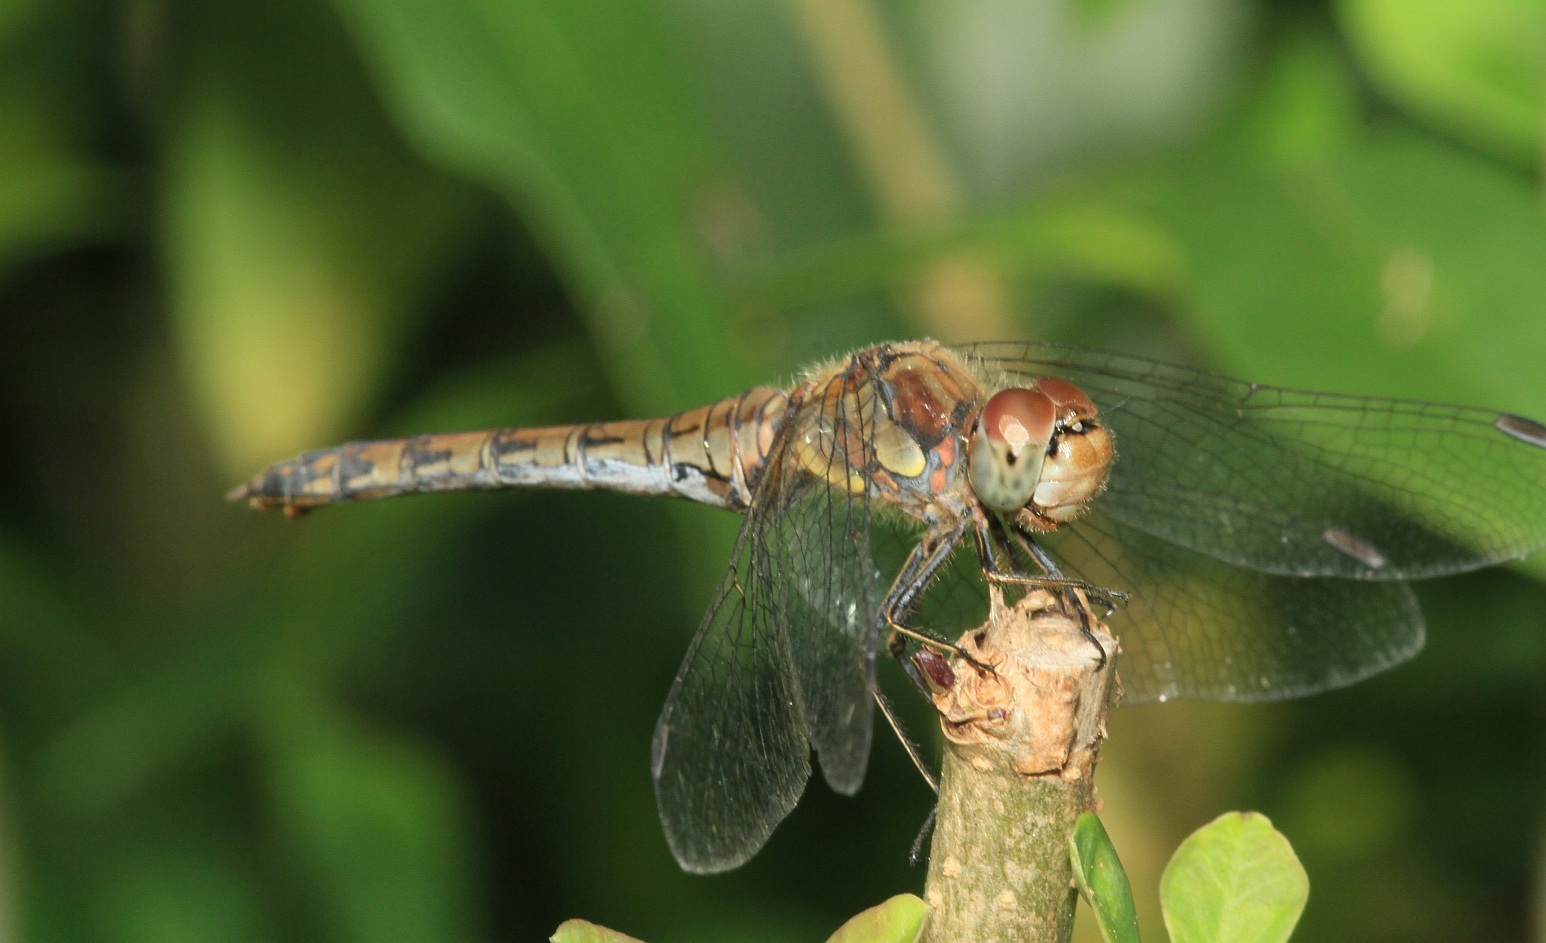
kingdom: Animalia
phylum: Arthropoda
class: Insecta
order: Odonata
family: Libellulidae
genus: Sympetrum
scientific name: Sympetrum striolatum
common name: Common darter
